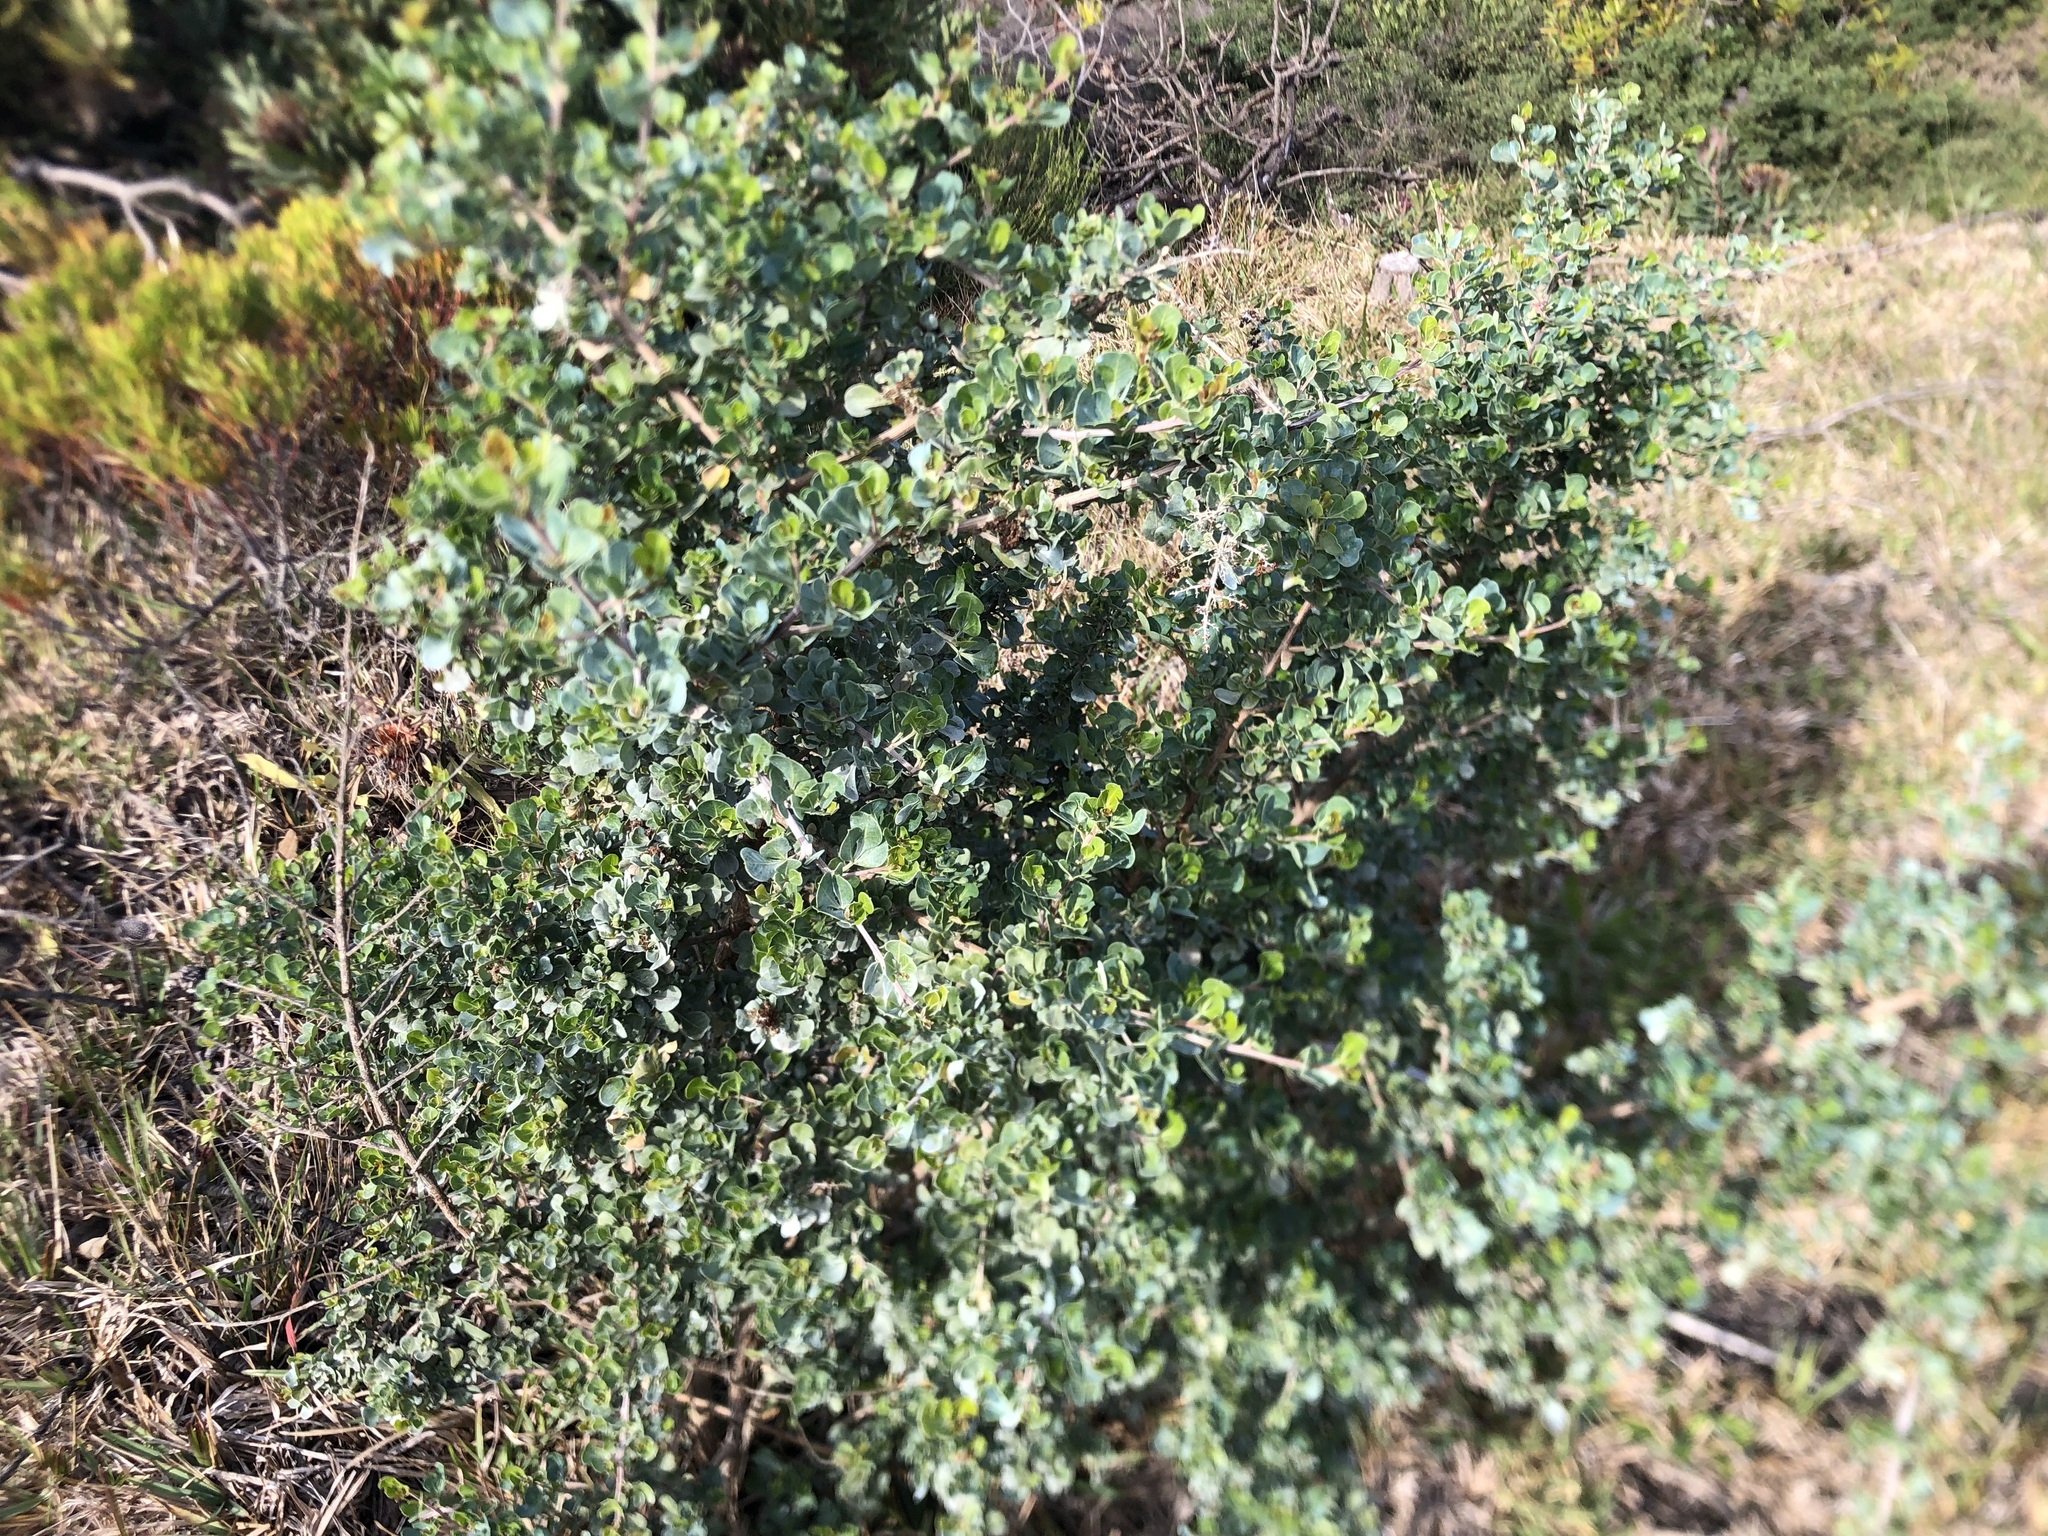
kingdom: Plantae
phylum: Tracheophyta
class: Magnoliopsida
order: Sapindales
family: Anacardiaceae
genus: Searsia
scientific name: Searsia glauca
